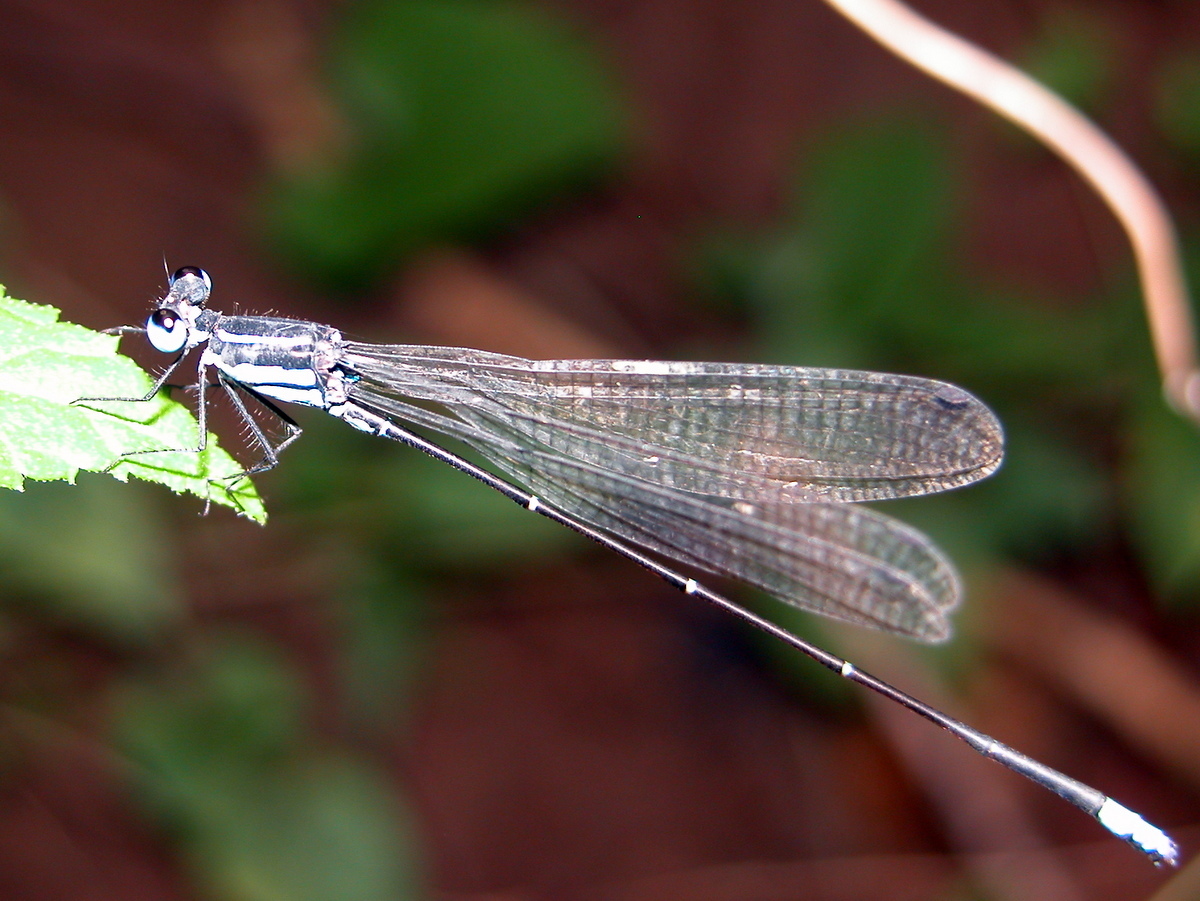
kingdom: Animalia
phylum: Arthropoda
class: Insecta
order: Odonata
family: Platycnemididae
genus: Caconeura
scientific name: Caconeura ramburi
